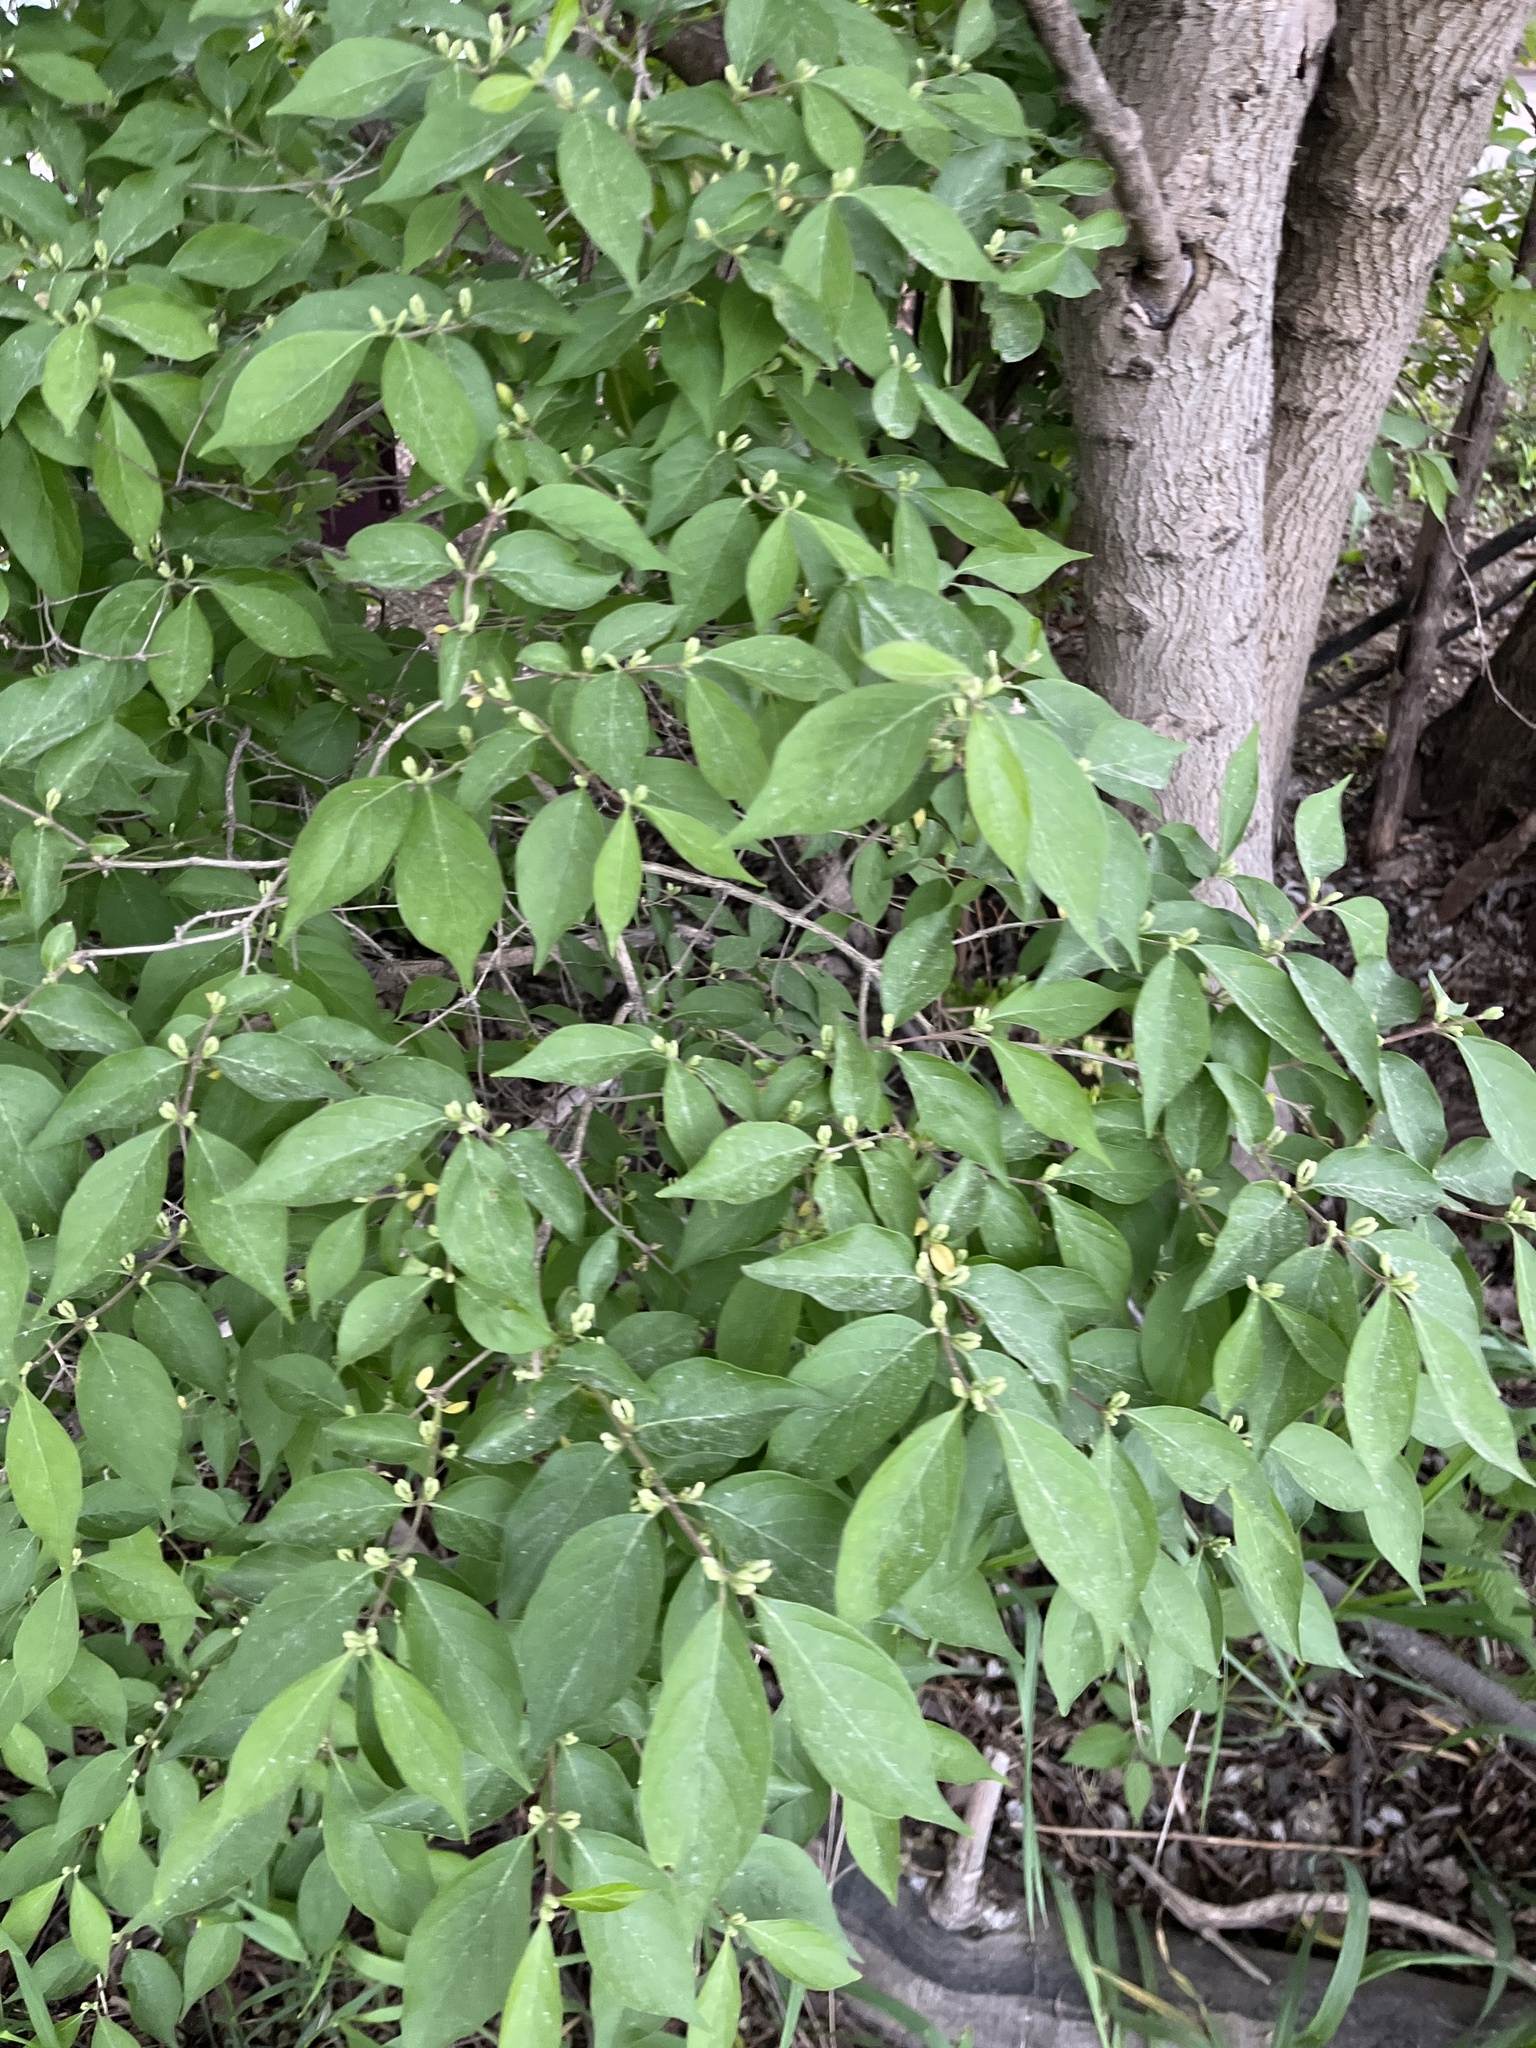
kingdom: Plantae
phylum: Tracheophyta
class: Magnoliopsida
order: Dipsacales
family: Caprifoliaceae
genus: Lonicera
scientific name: Lonicera maackii
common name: Amur honeysuckle
